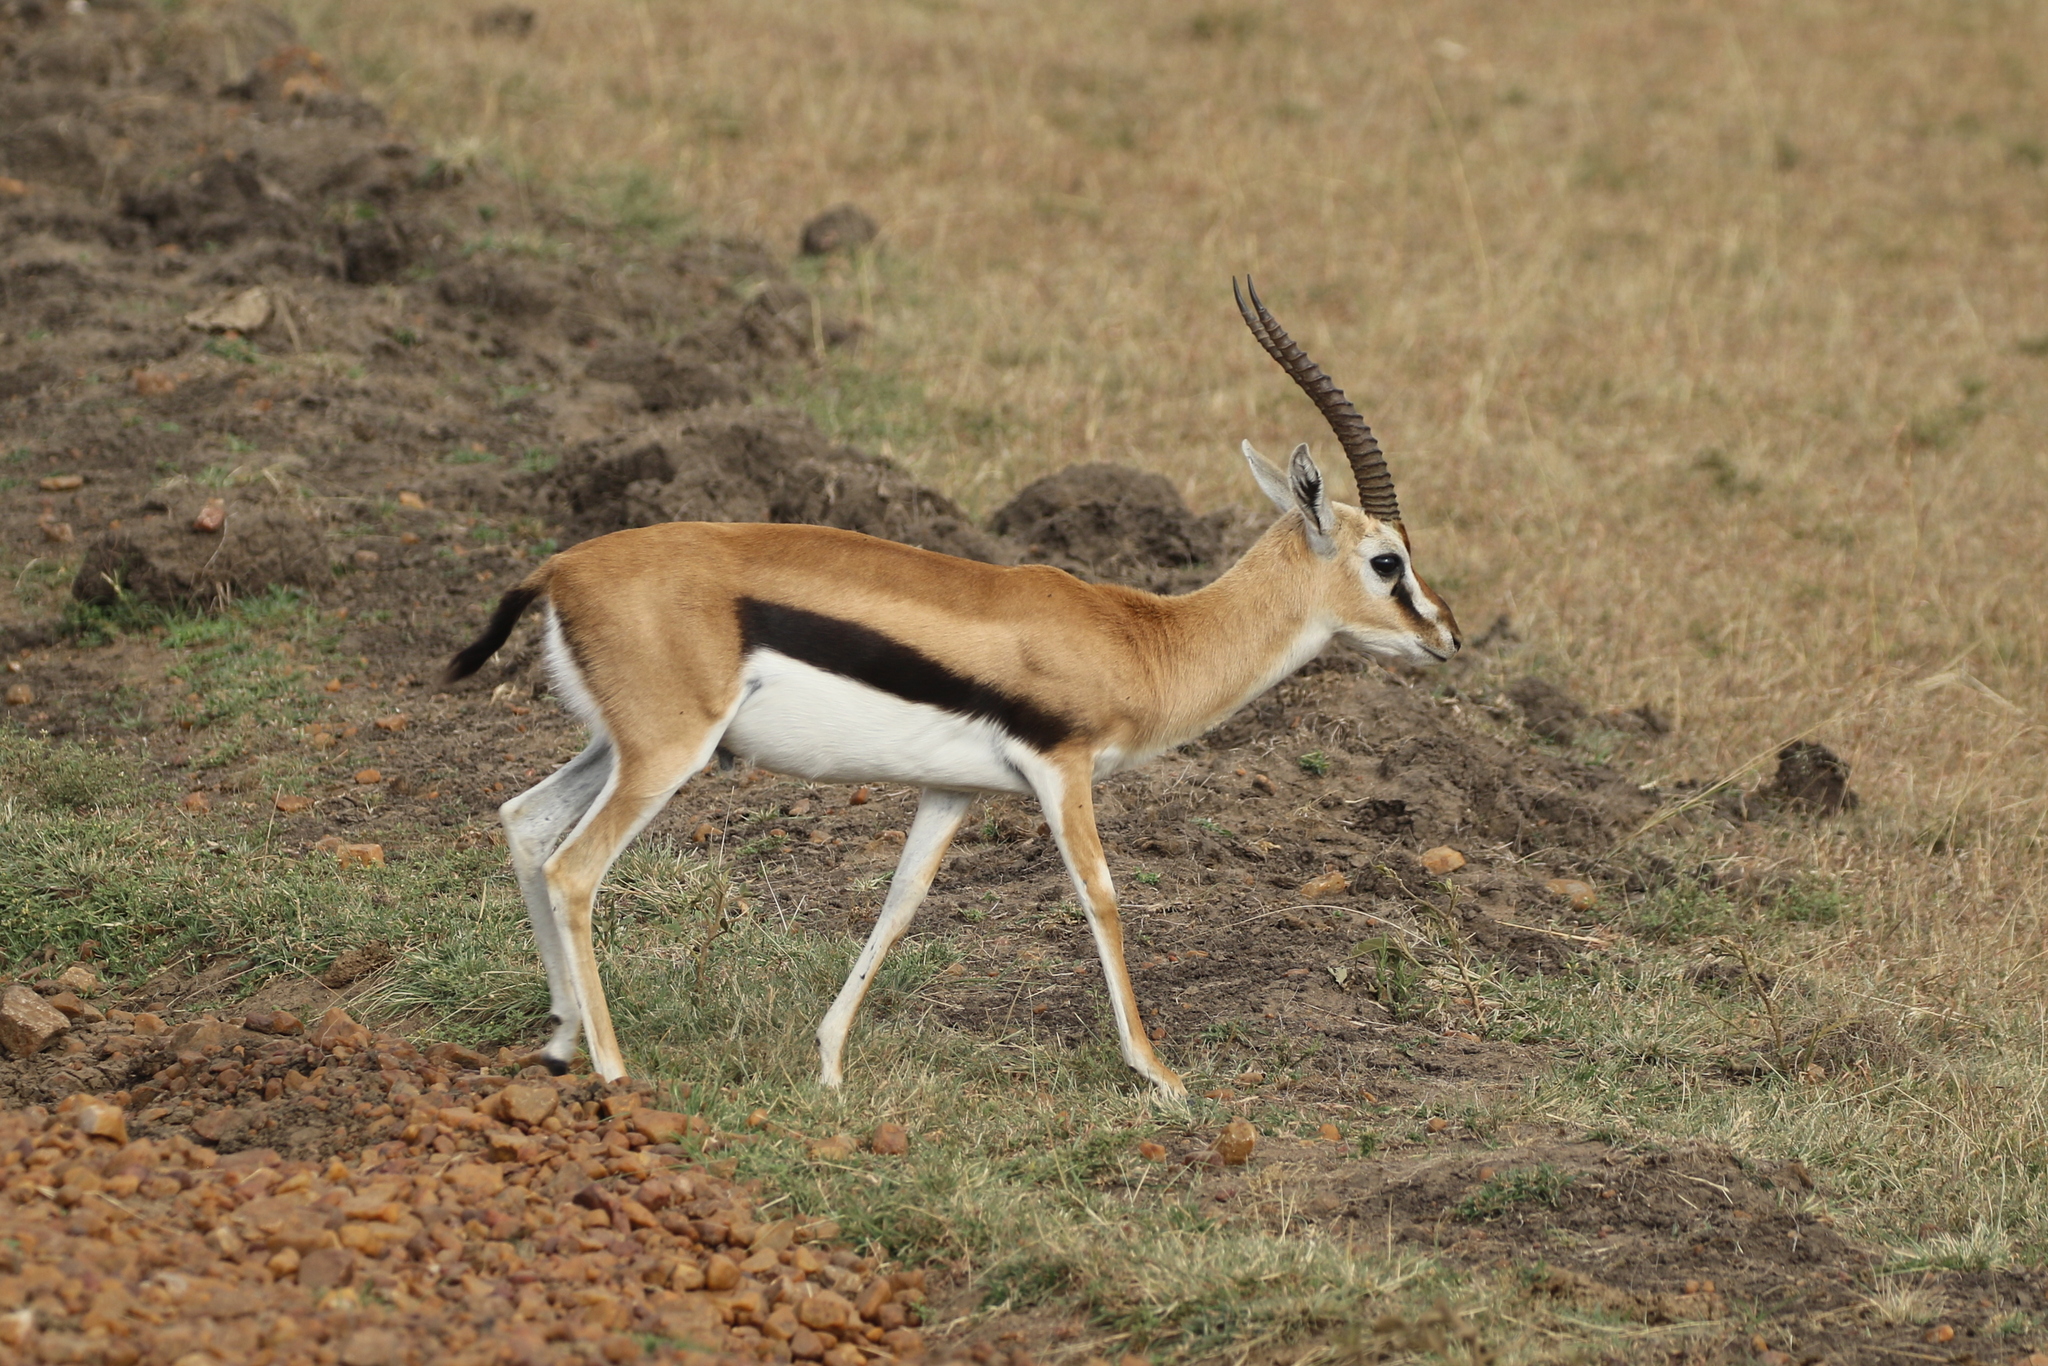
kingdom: Animalia
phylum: Chordata
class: Mammalia
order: Artiodactyla
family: Bovidae
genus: Eudorcas
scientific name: Eudorcas thomsonii
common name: Thomson's gazelle
